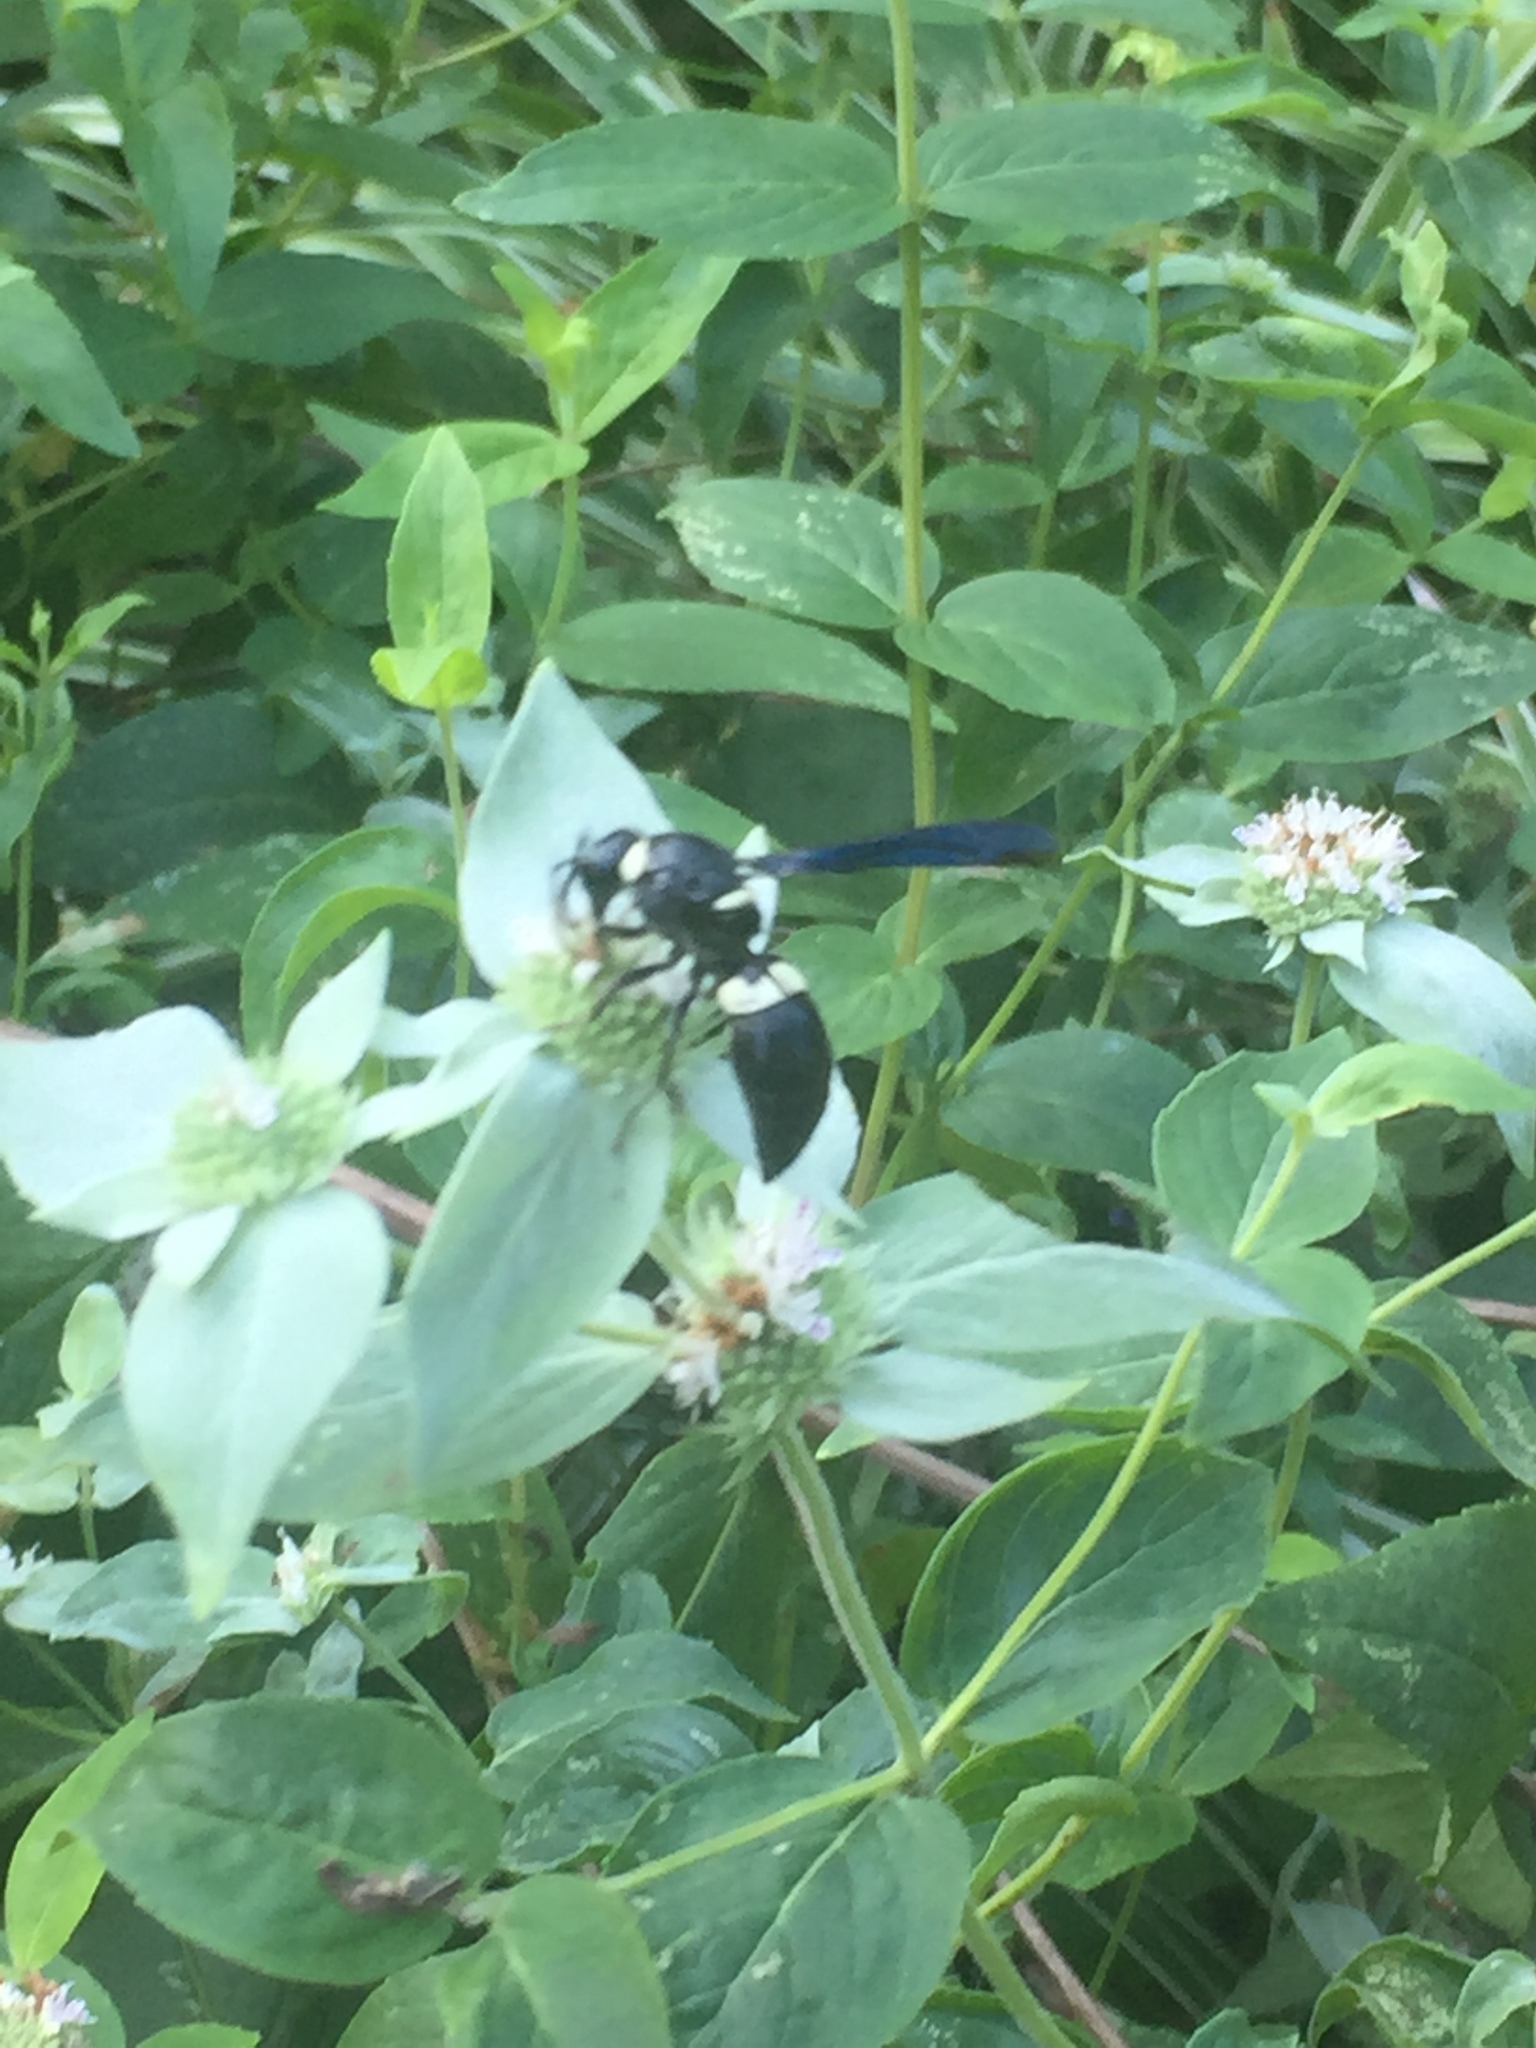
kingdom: Animalia
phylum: Arthropoda
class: Insecta
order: Hymenoptera
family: Eumenidae
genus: Monobia
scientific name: Monobia quadridens
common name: Four-toothed mason wasp
